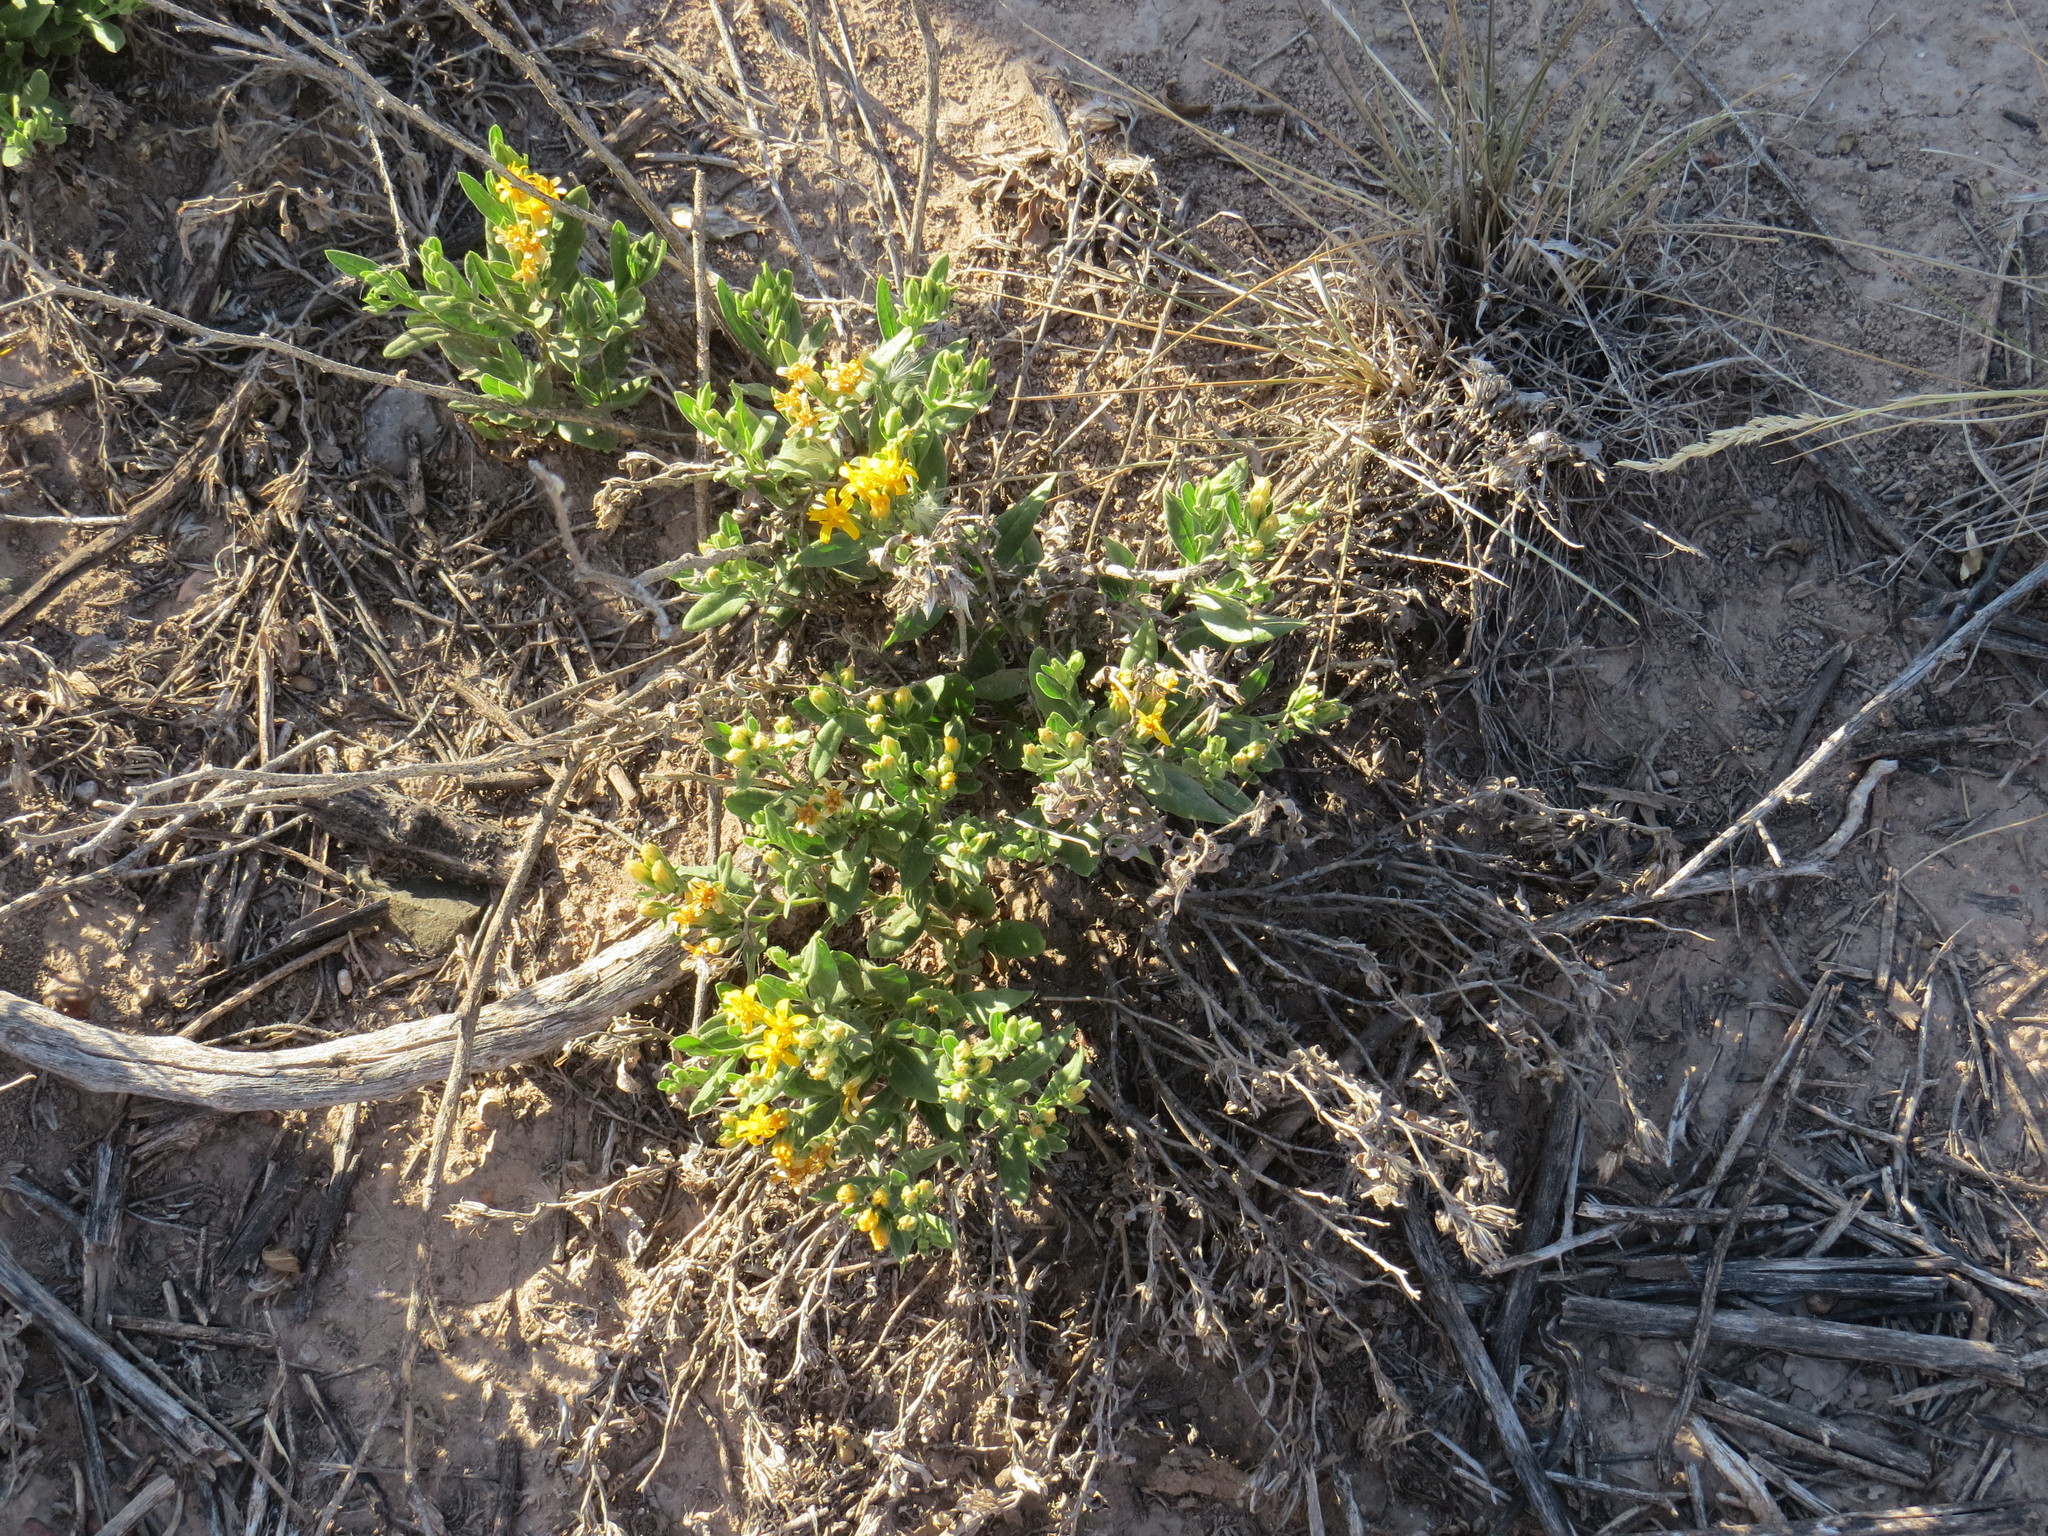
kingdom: Plantae
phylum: Tracheophyta
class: Magnoliopsida
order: Asterales
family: Asteraceae
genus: Trixis
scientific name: Trixis cacalioides
